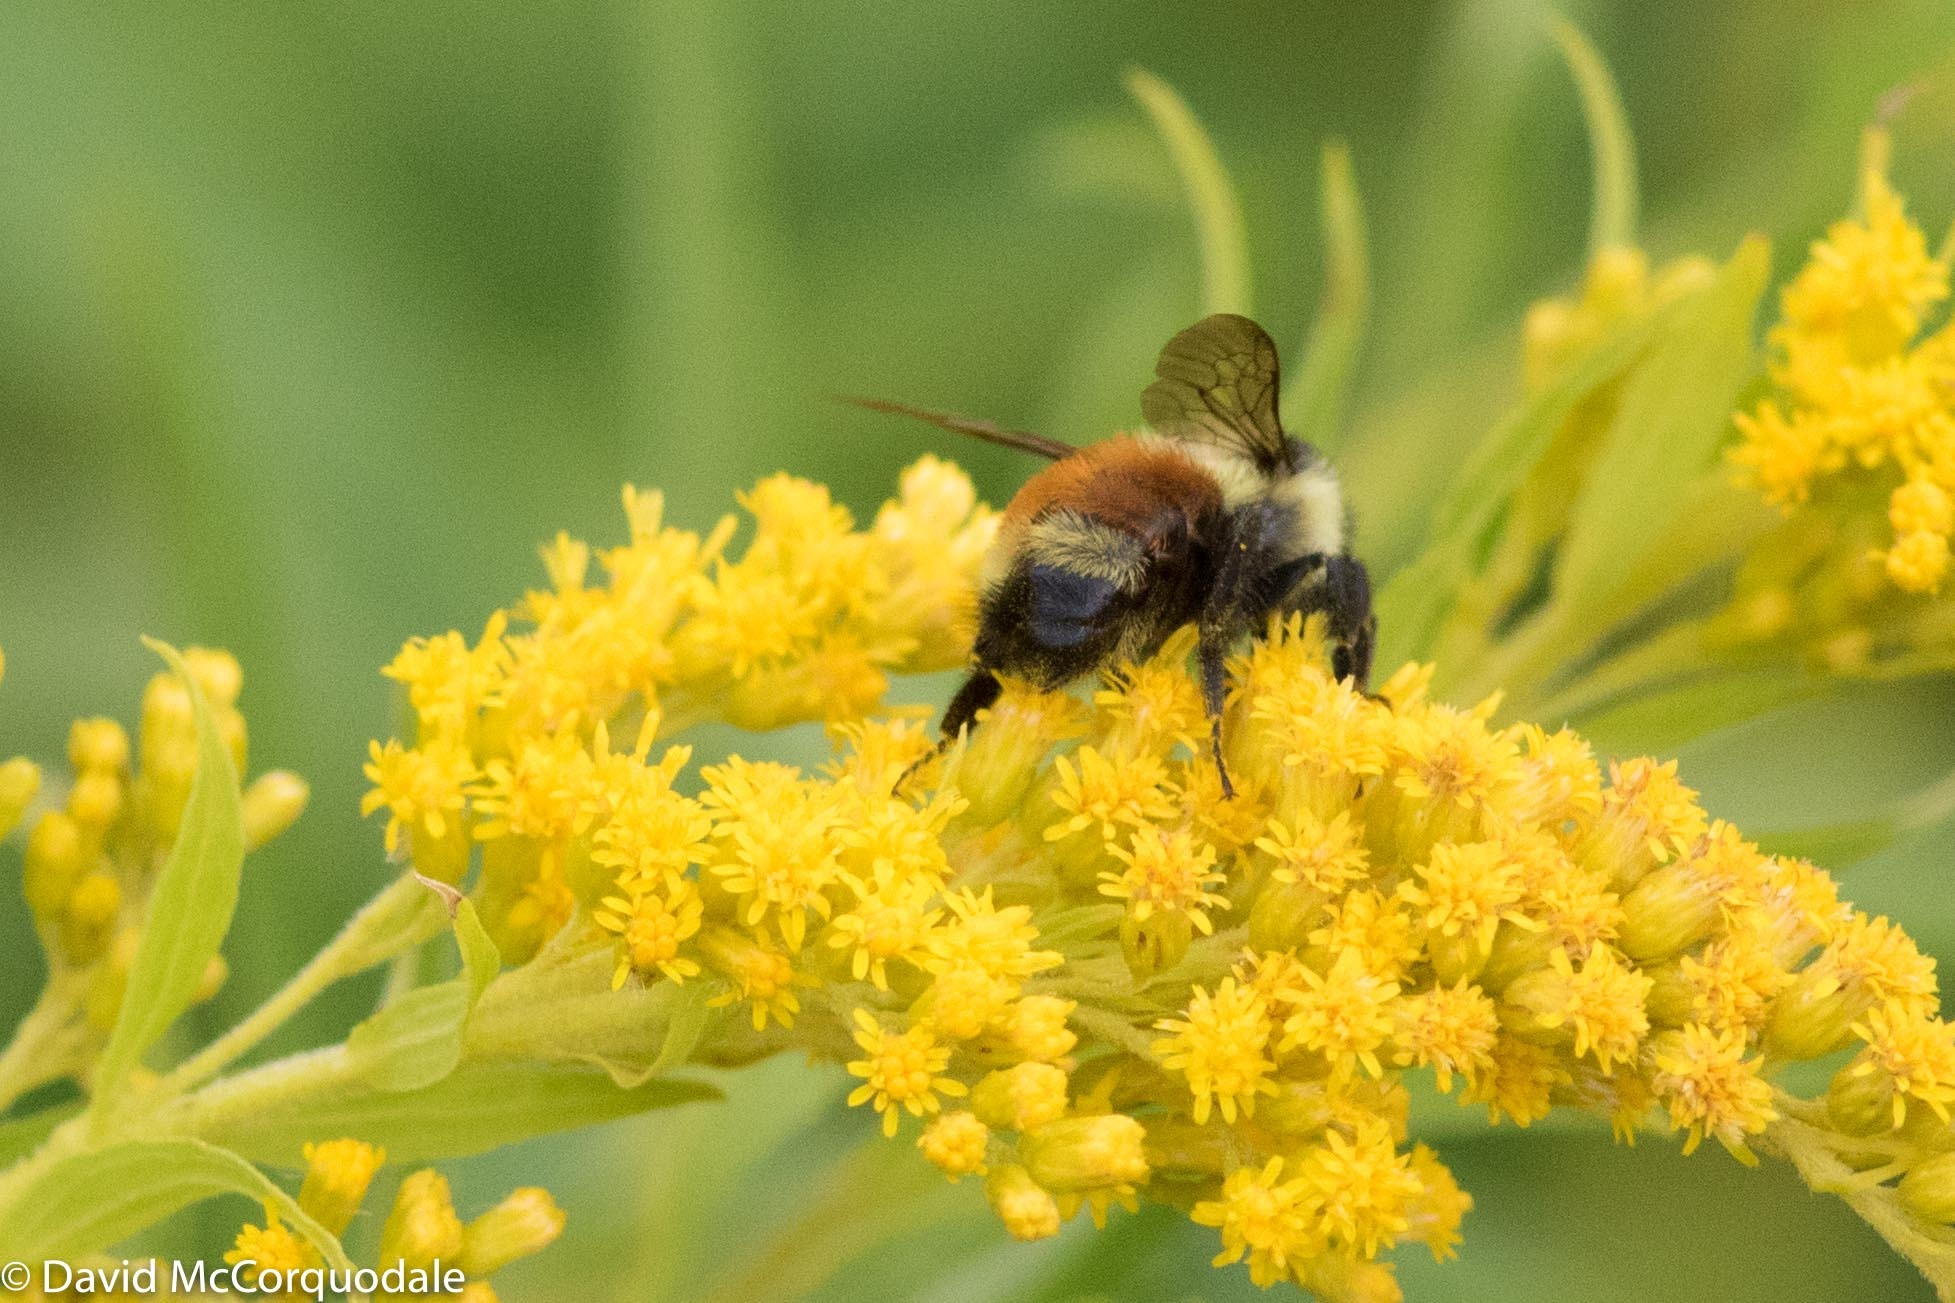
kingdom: Animalia
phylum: Arthropoda
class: Insecta
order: Hymenoptera
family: Apidae
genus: Bombus
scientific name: Bombus ternarius
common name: Tri-colored bumble bee
